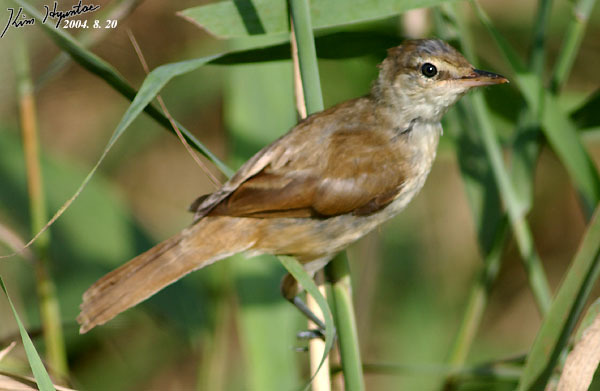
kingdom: Animalia
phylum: Chordata
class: Aves
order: Passeriformes
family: Acrocephalidae
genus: Acrocephalus
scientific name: Acrocephalus orientalis
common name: Oriental reed warbler
